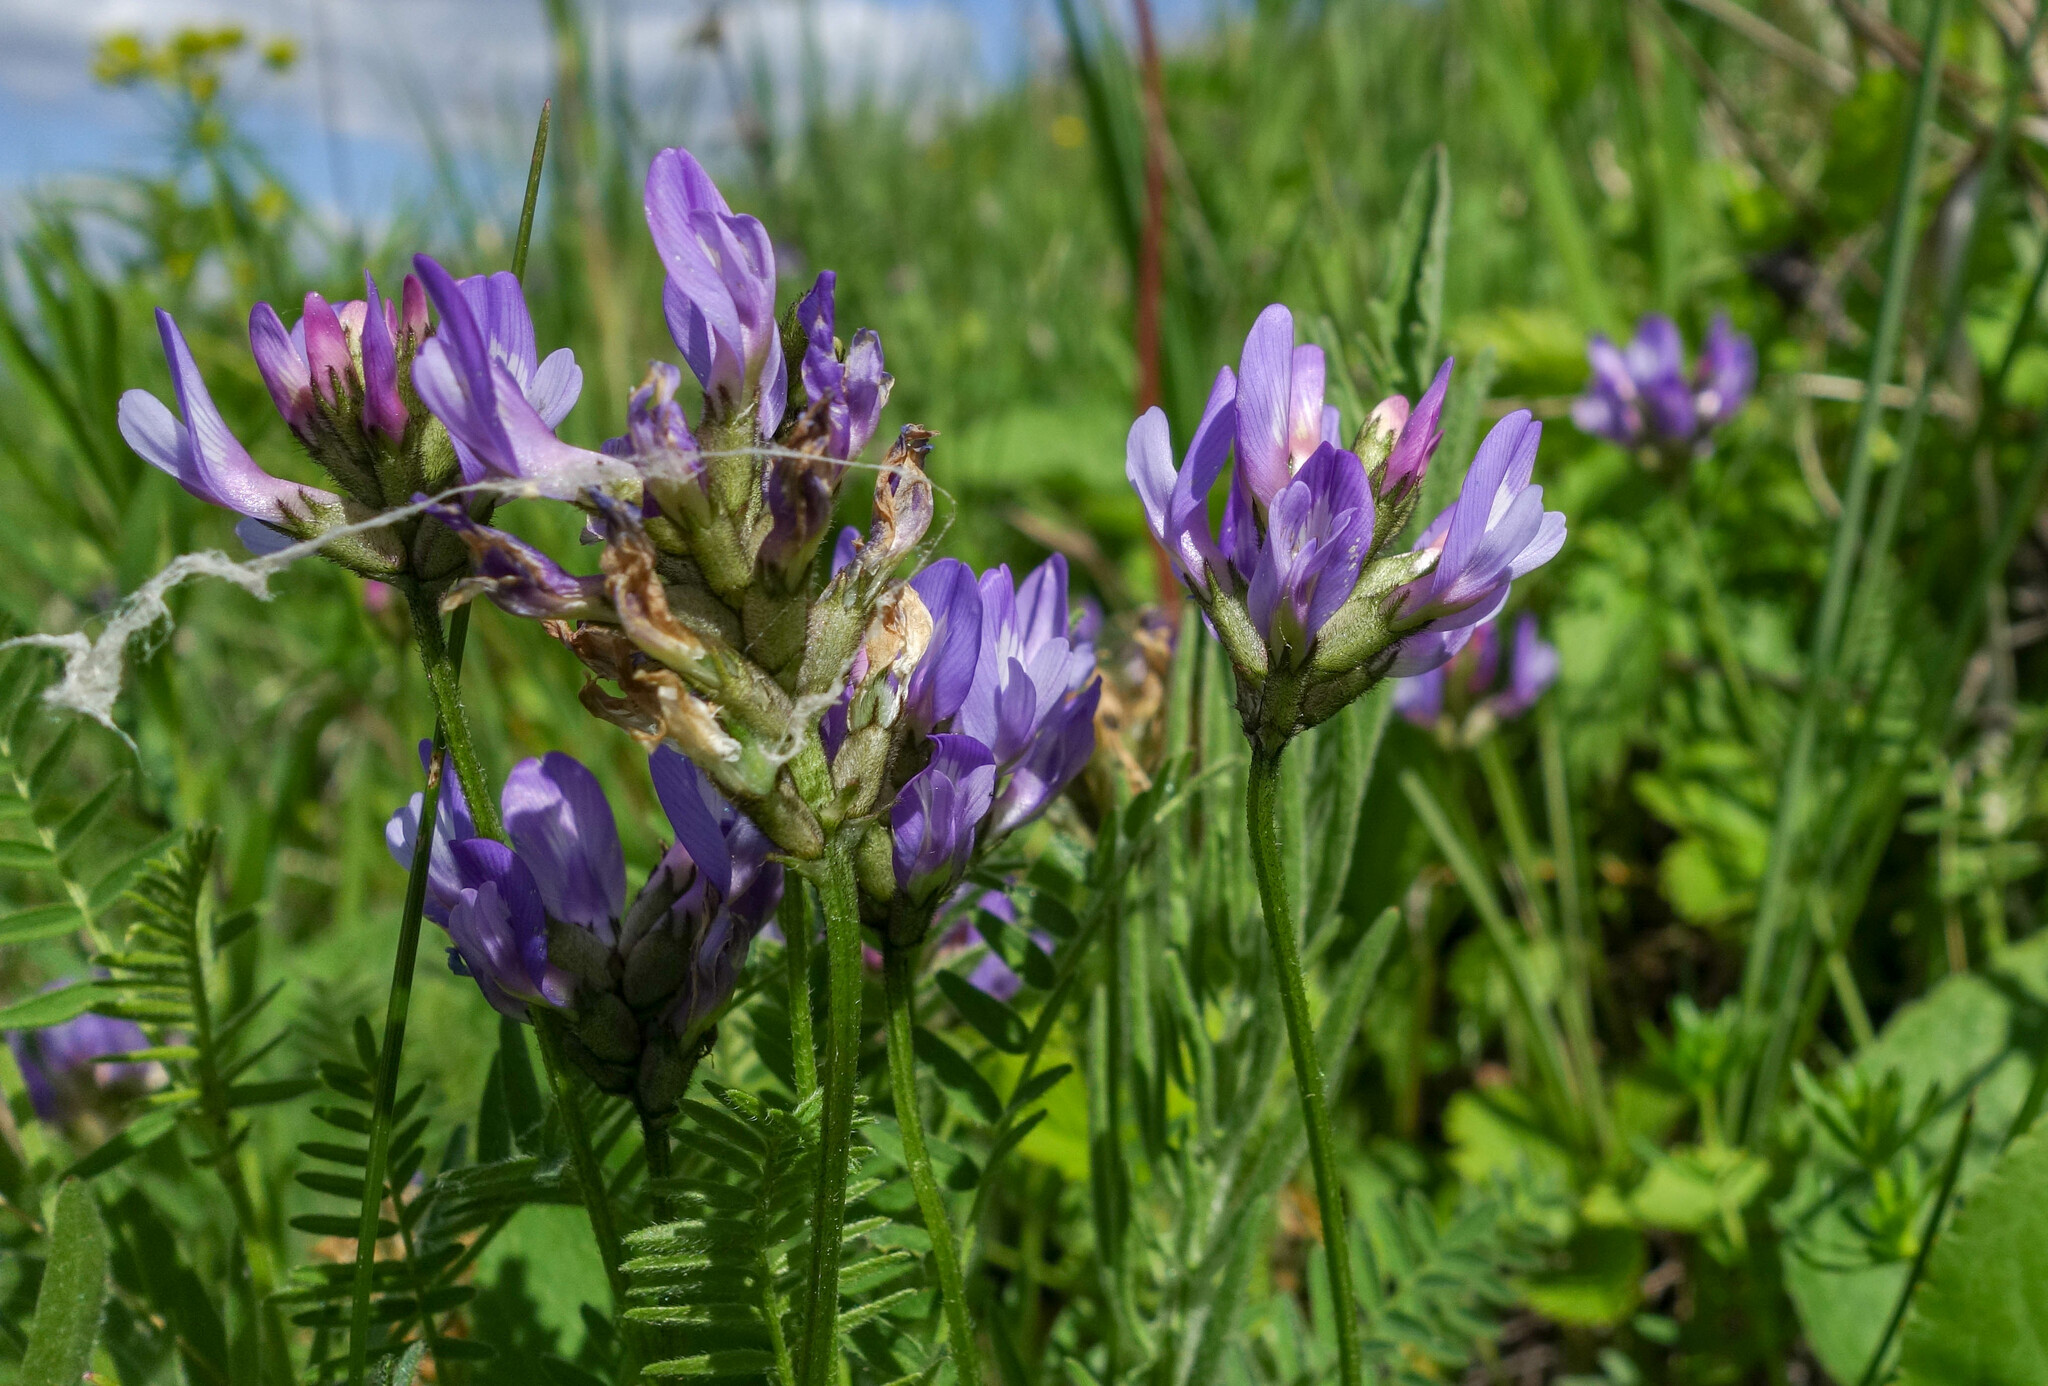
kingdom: Plantae
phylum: Tracheophyta
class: Magnoliopsida
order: Fabales
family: Fabaceae
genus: Astragalus
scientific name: Astragalus danicus
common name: Purple milk-vetch
